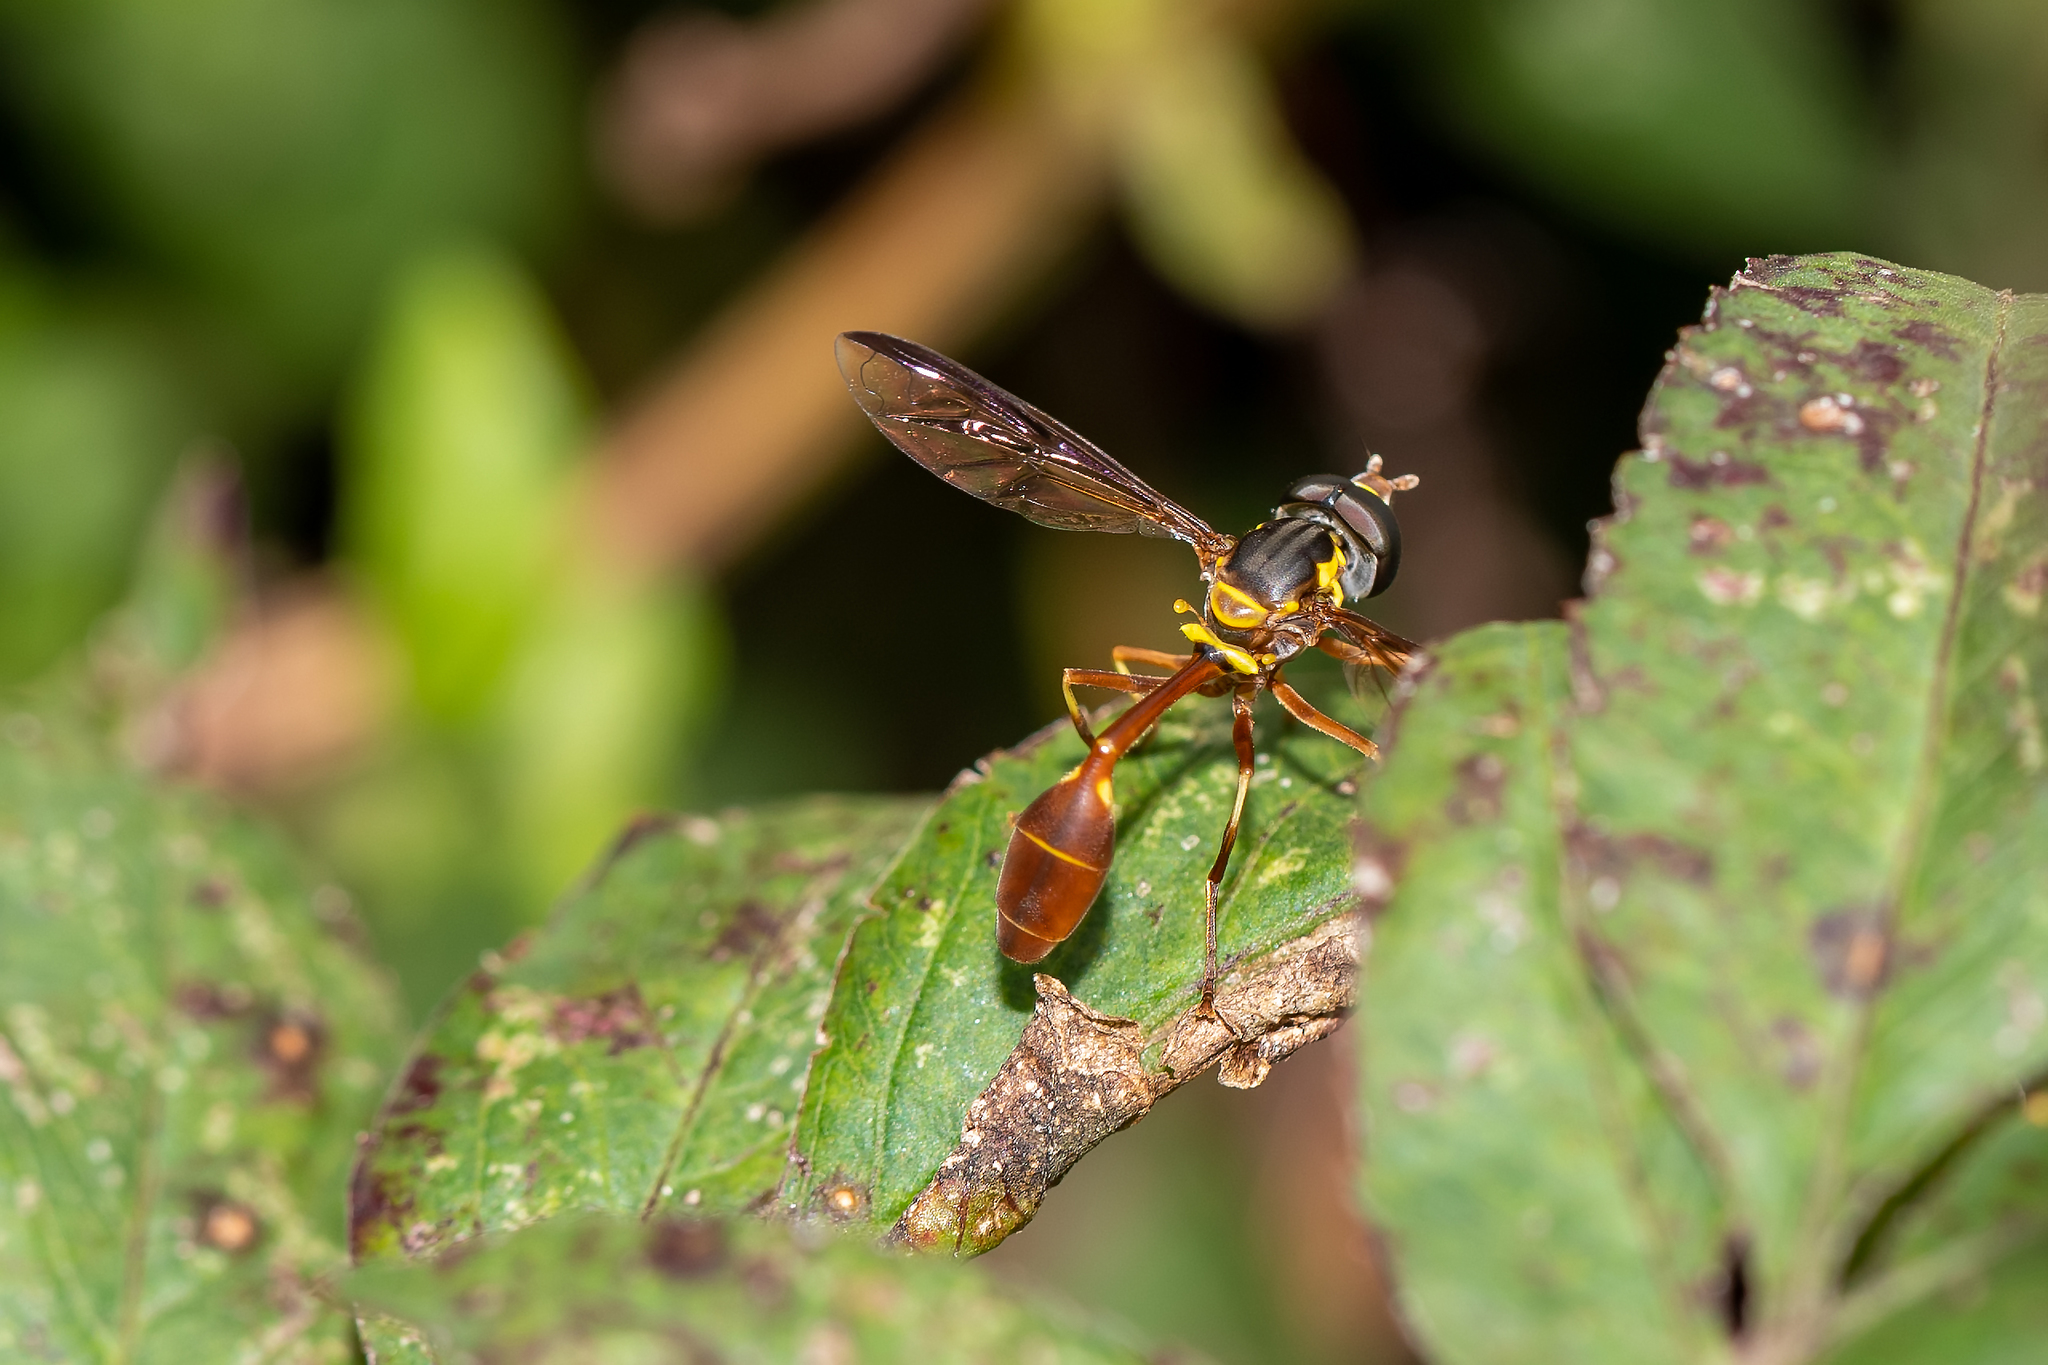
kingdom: Animalia
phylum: Arthropoda
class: Insecta
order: Diptera
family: Syrphidae
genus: Salpingogaster
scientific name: Salpingogaster punctifrons
